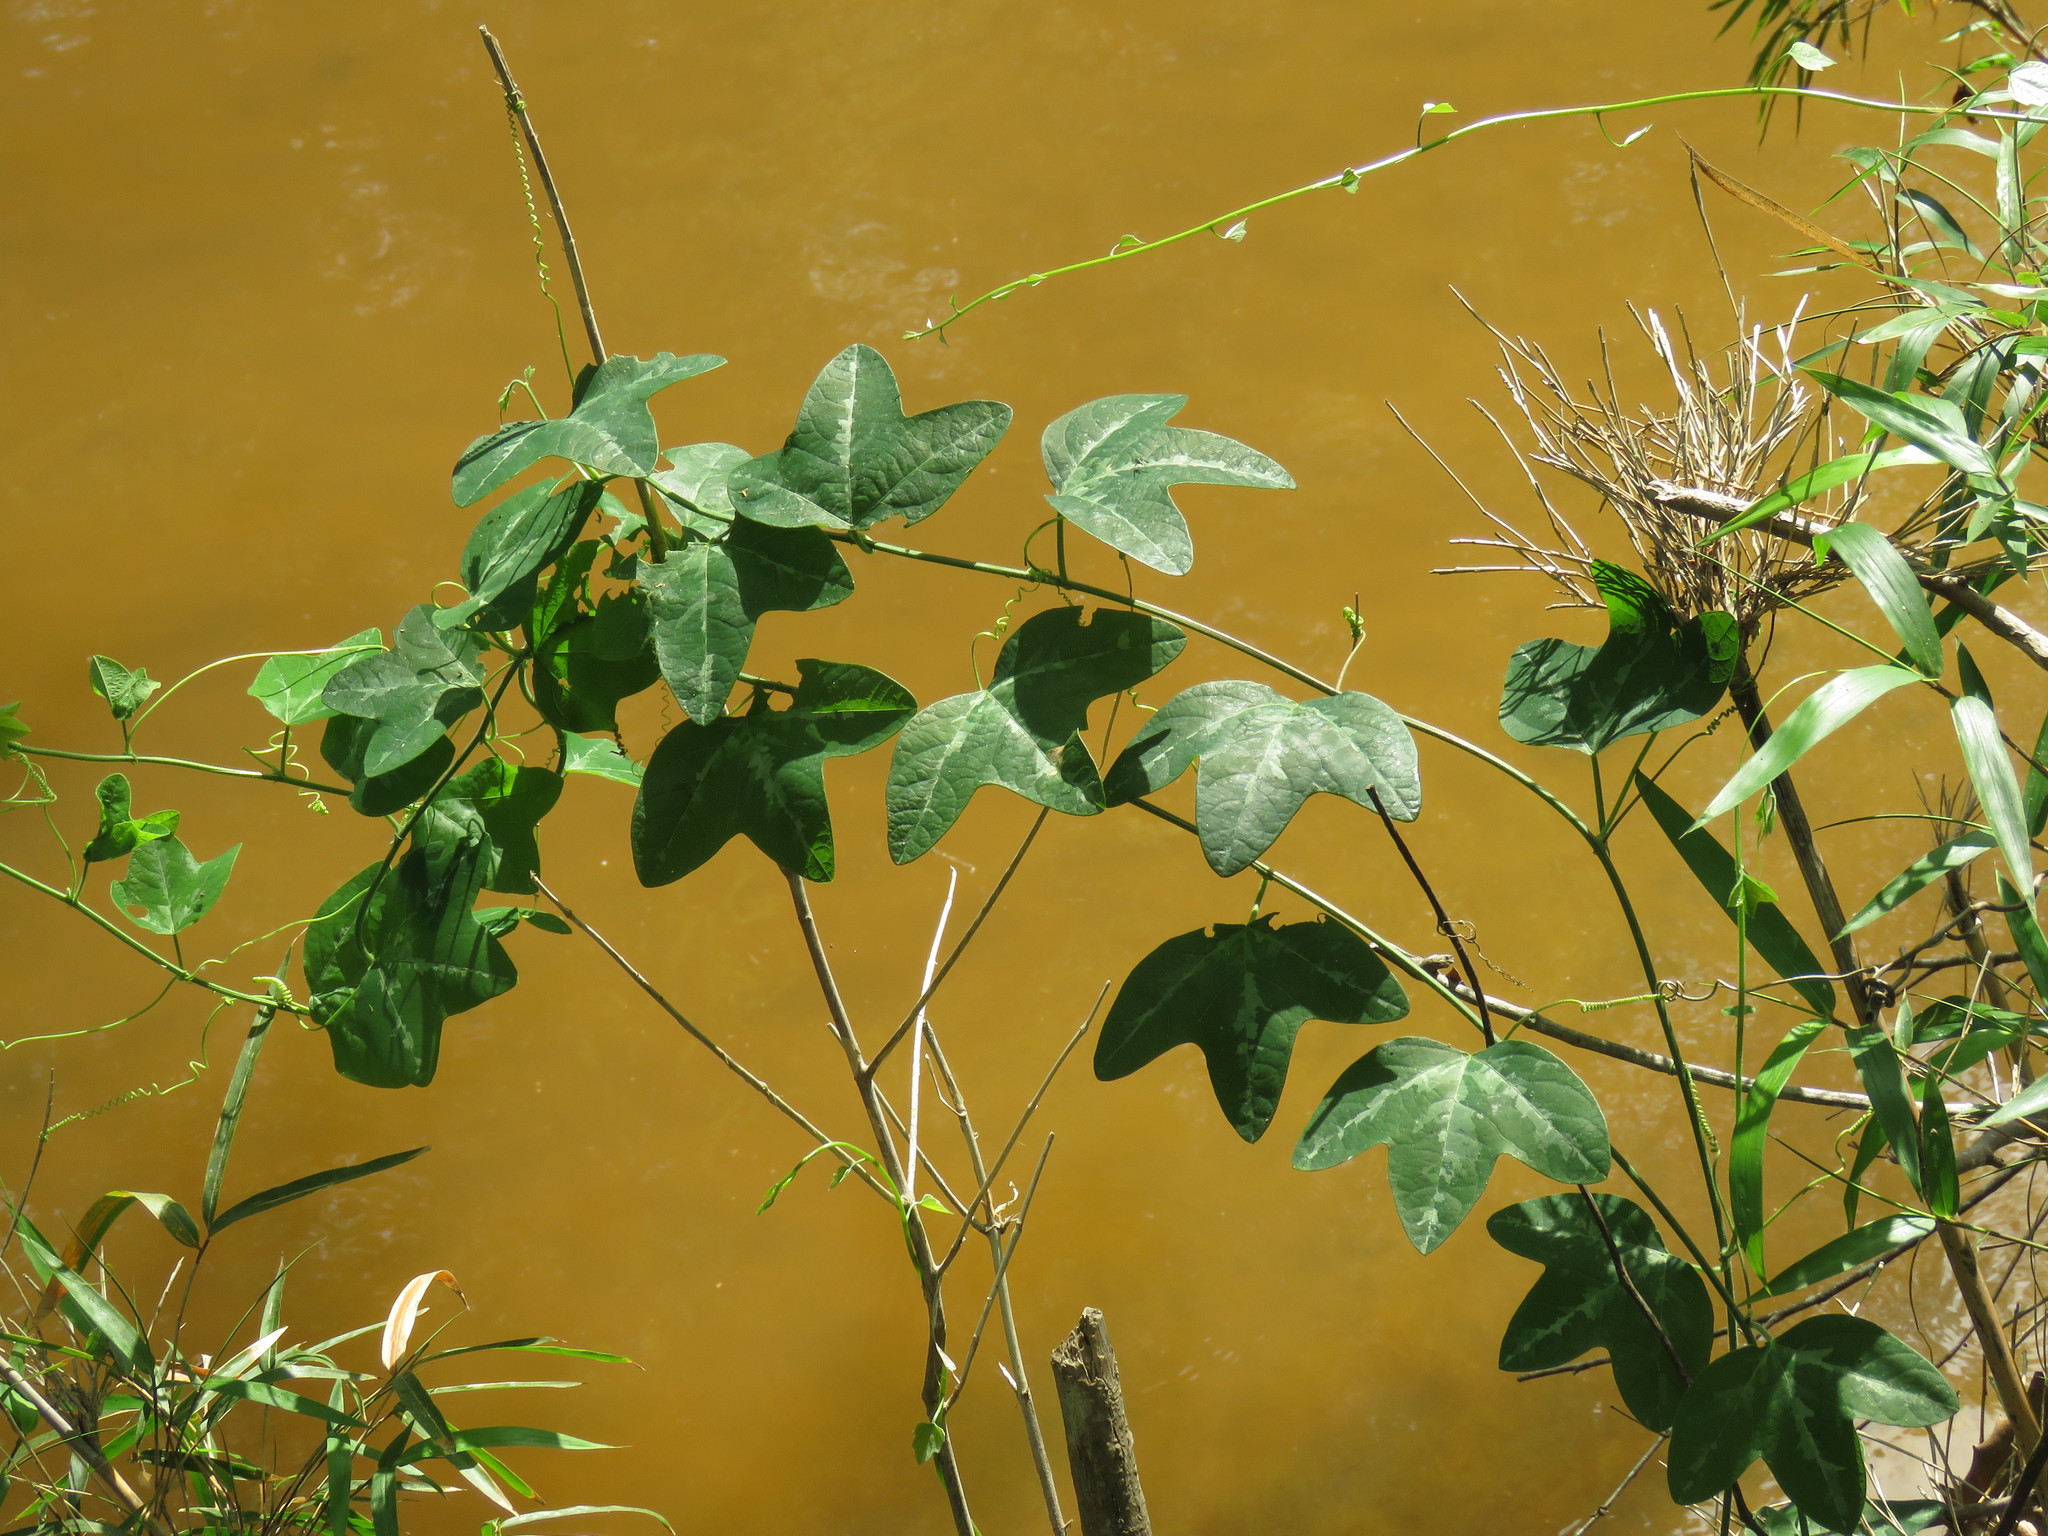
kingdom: Plantae
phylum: Tracheophyta
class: Magnoliopsida
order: Malpighiales
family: Passifloraceae
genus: Passiflora
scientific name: Passiflora lutea
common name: Yellow passionflower
